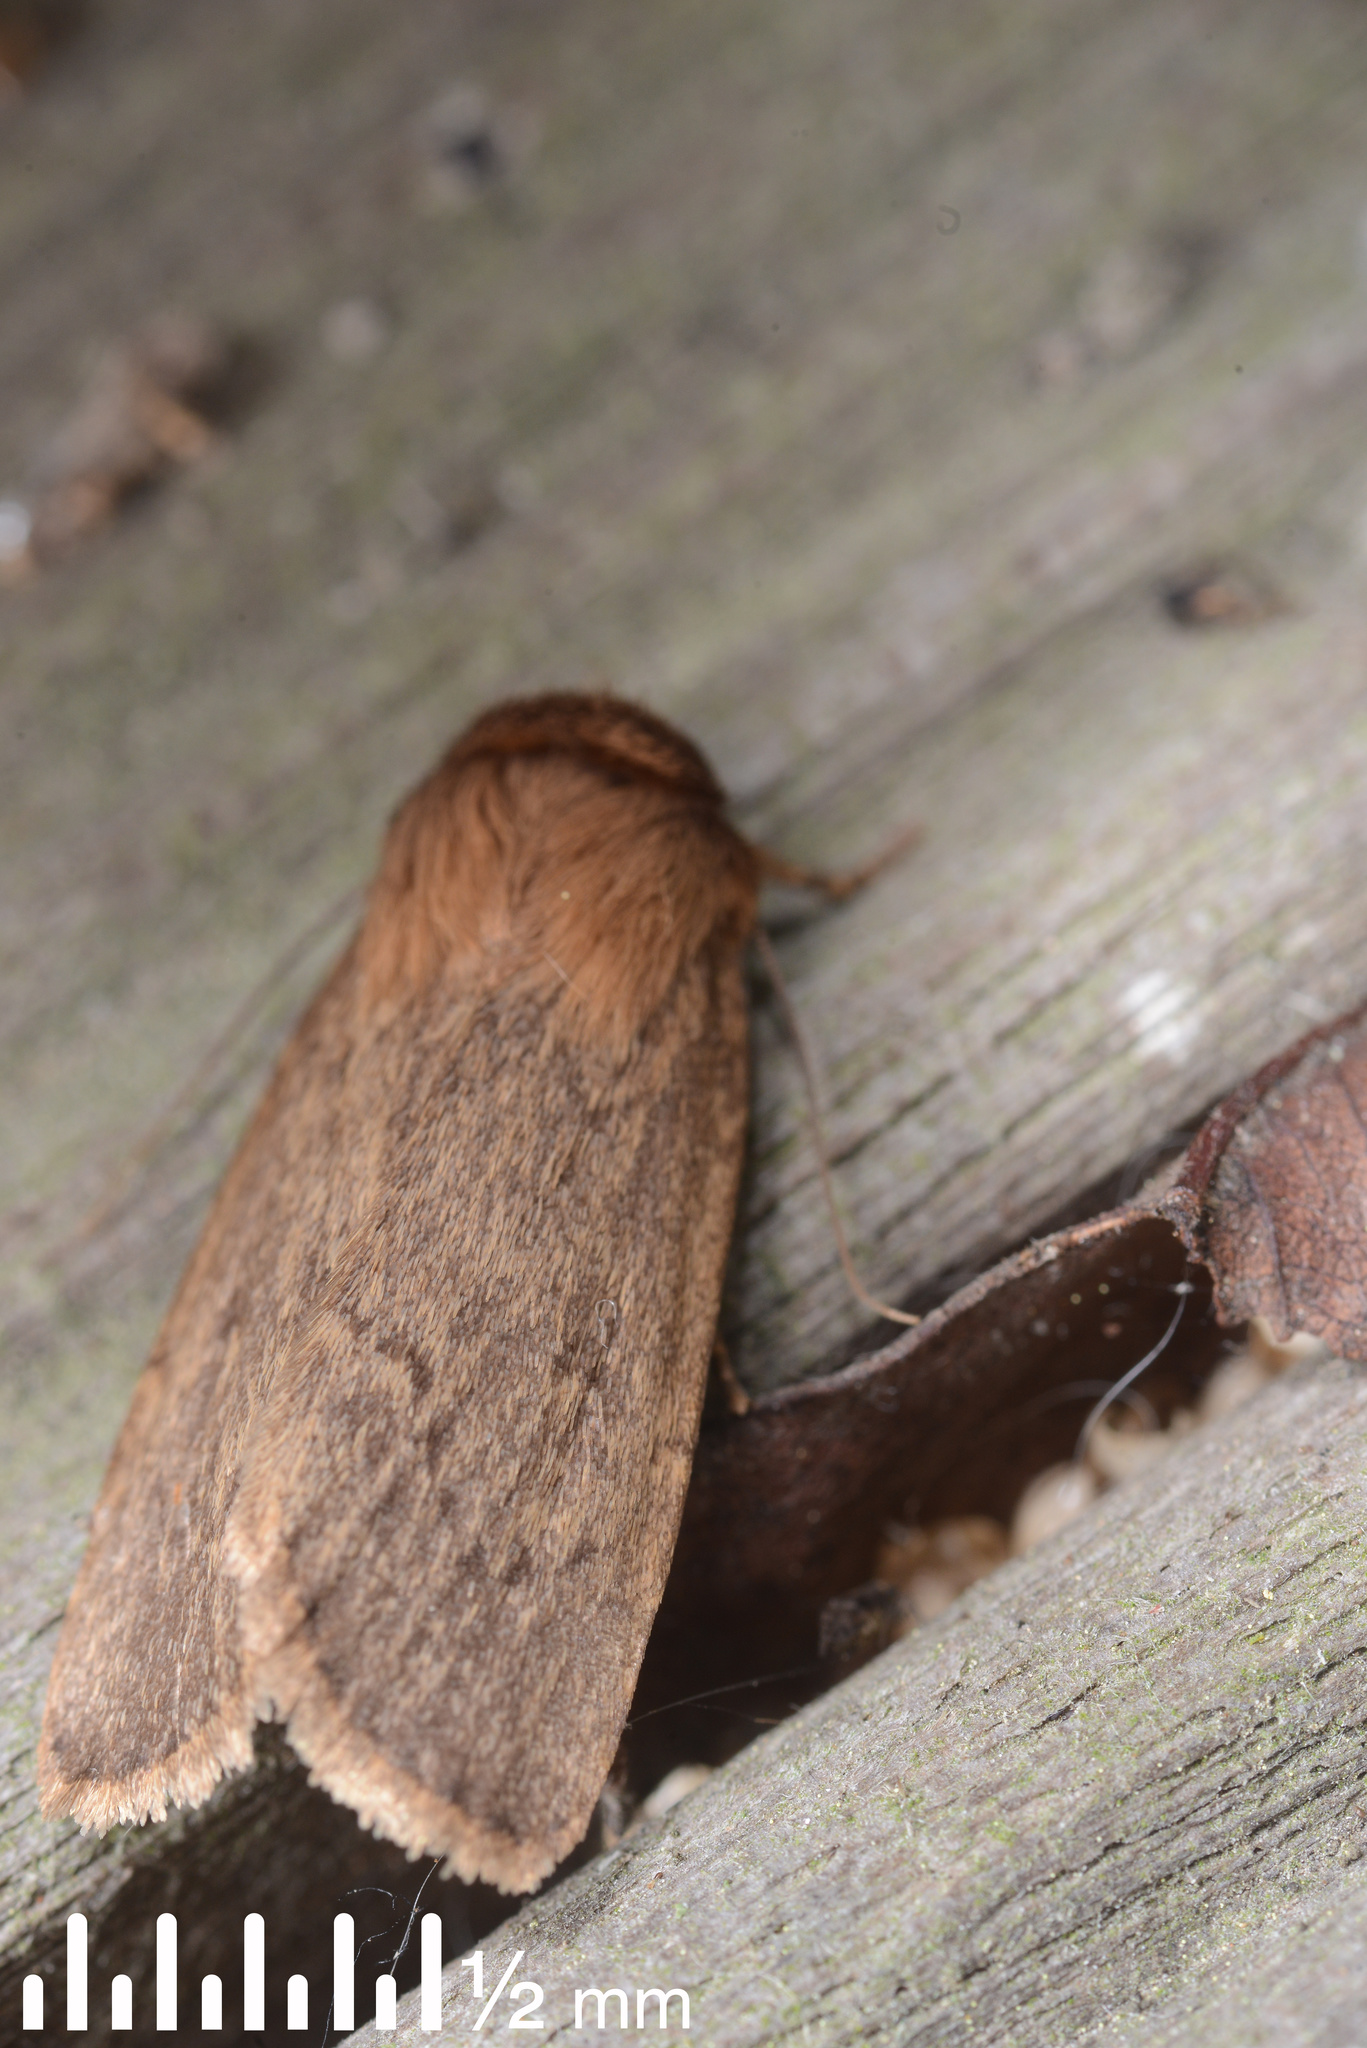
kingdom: Animalia
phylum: Arthropoda
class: Insecta
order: Lepidoptera
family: Noctuidae
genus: Bityla
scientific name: Bityla defigurata
